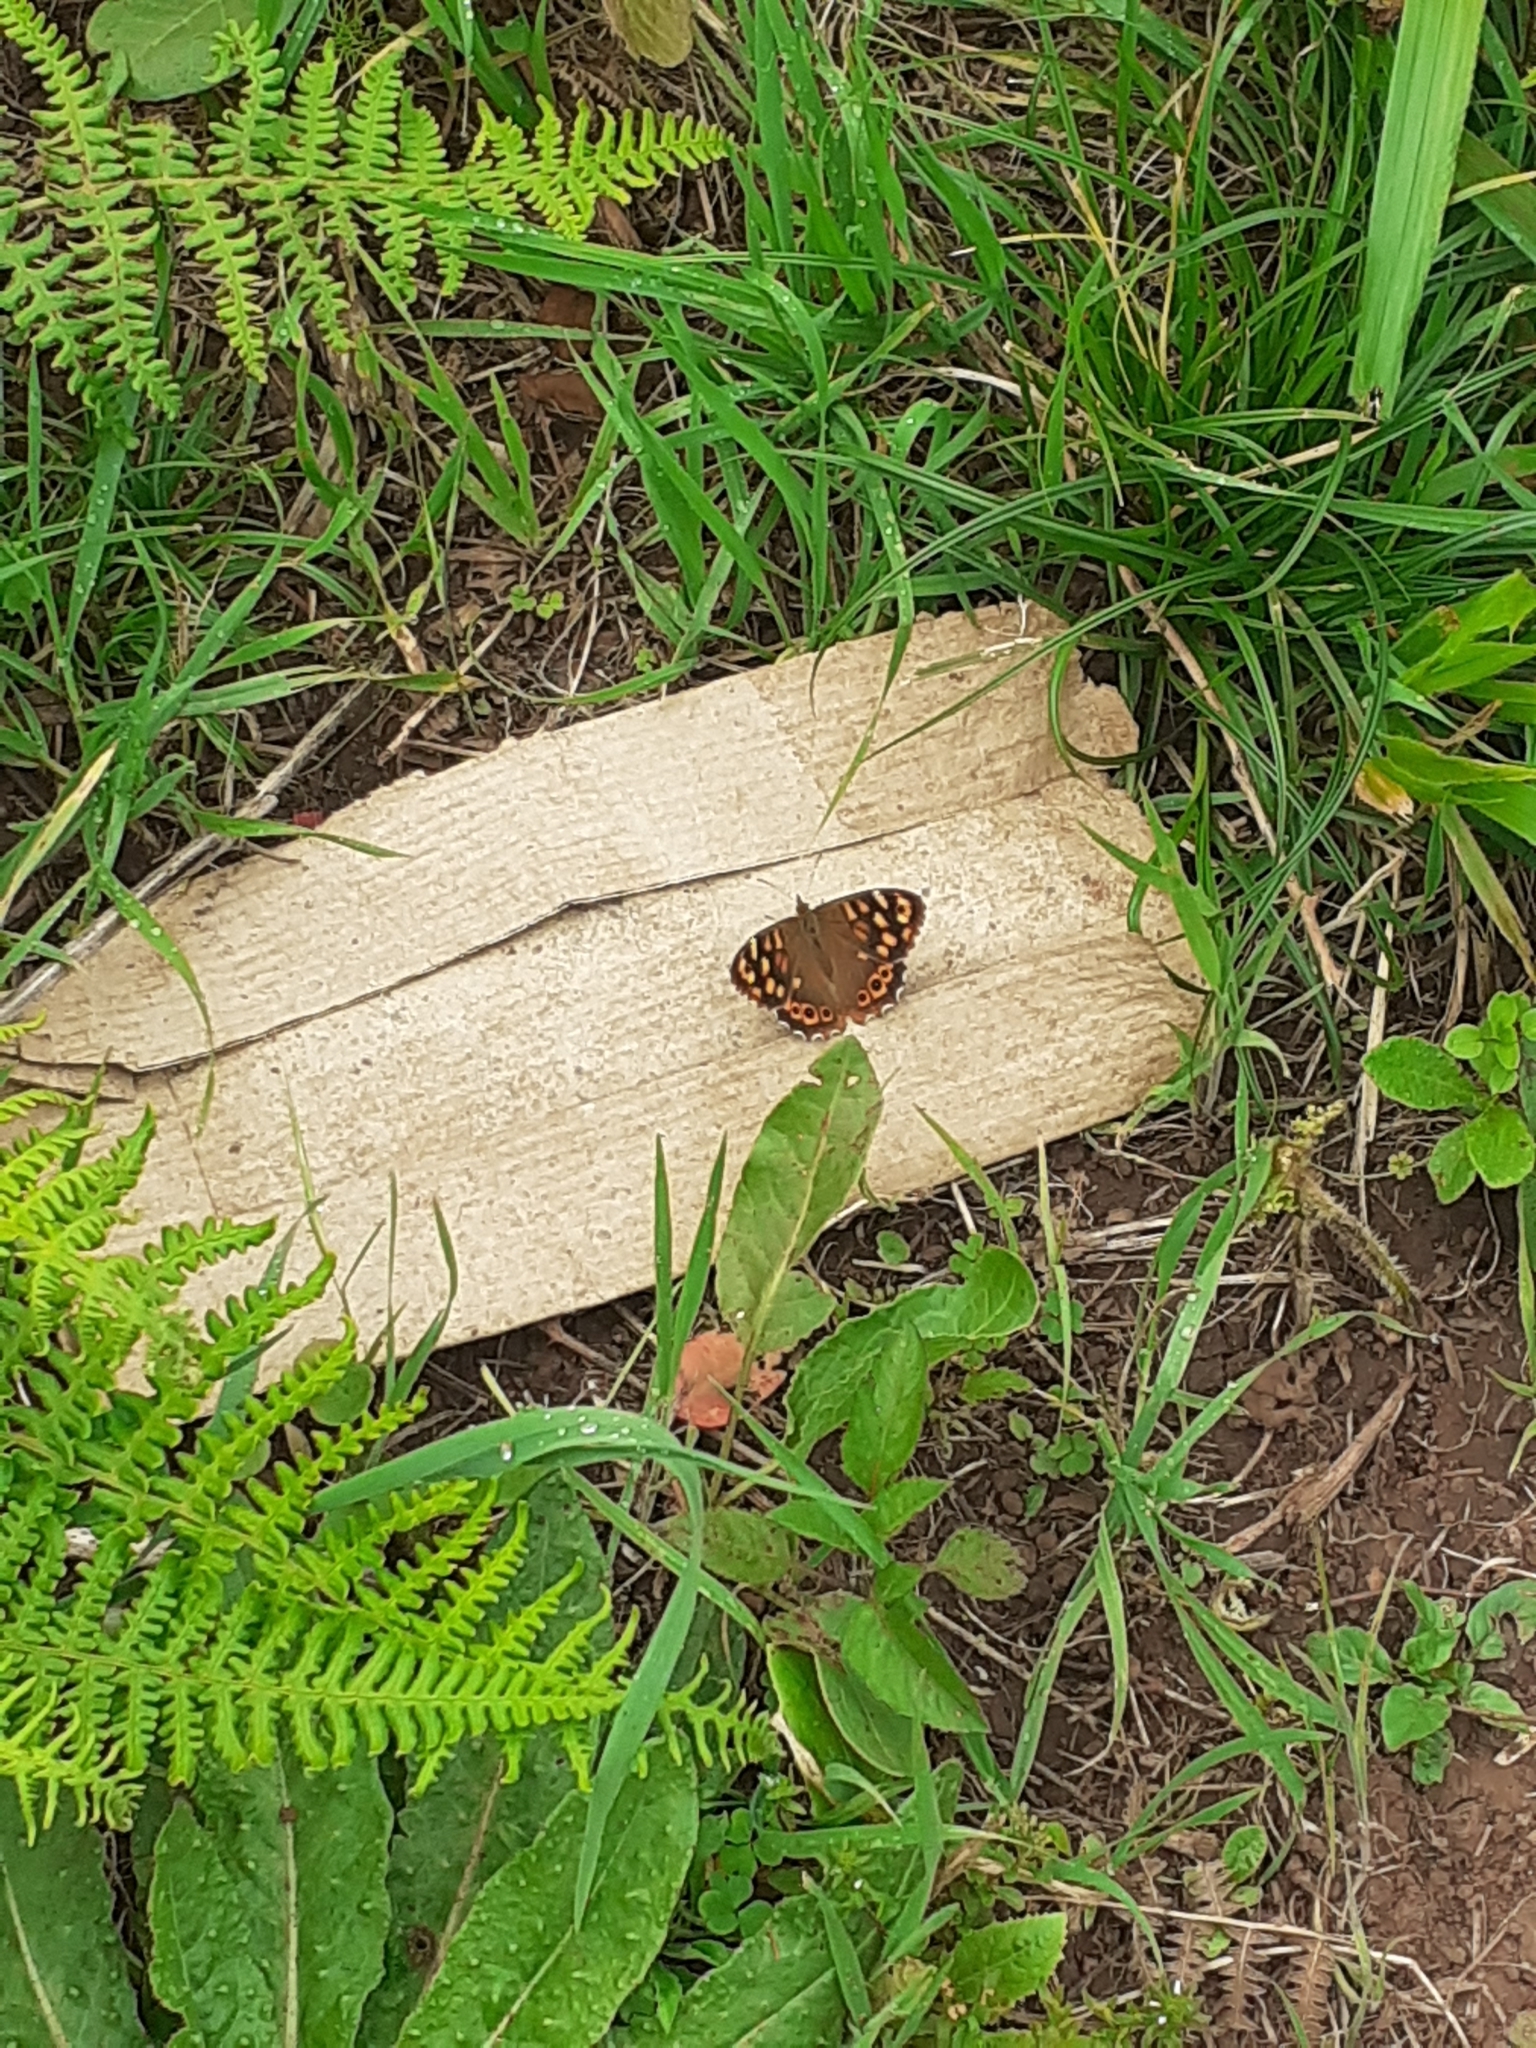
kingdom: Animalia
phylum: Arthropoda
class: Insecta
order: Lepidoptera
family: Nymphalidae
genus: Pararge
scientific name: Pararge aegeria
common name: Speckled wood
